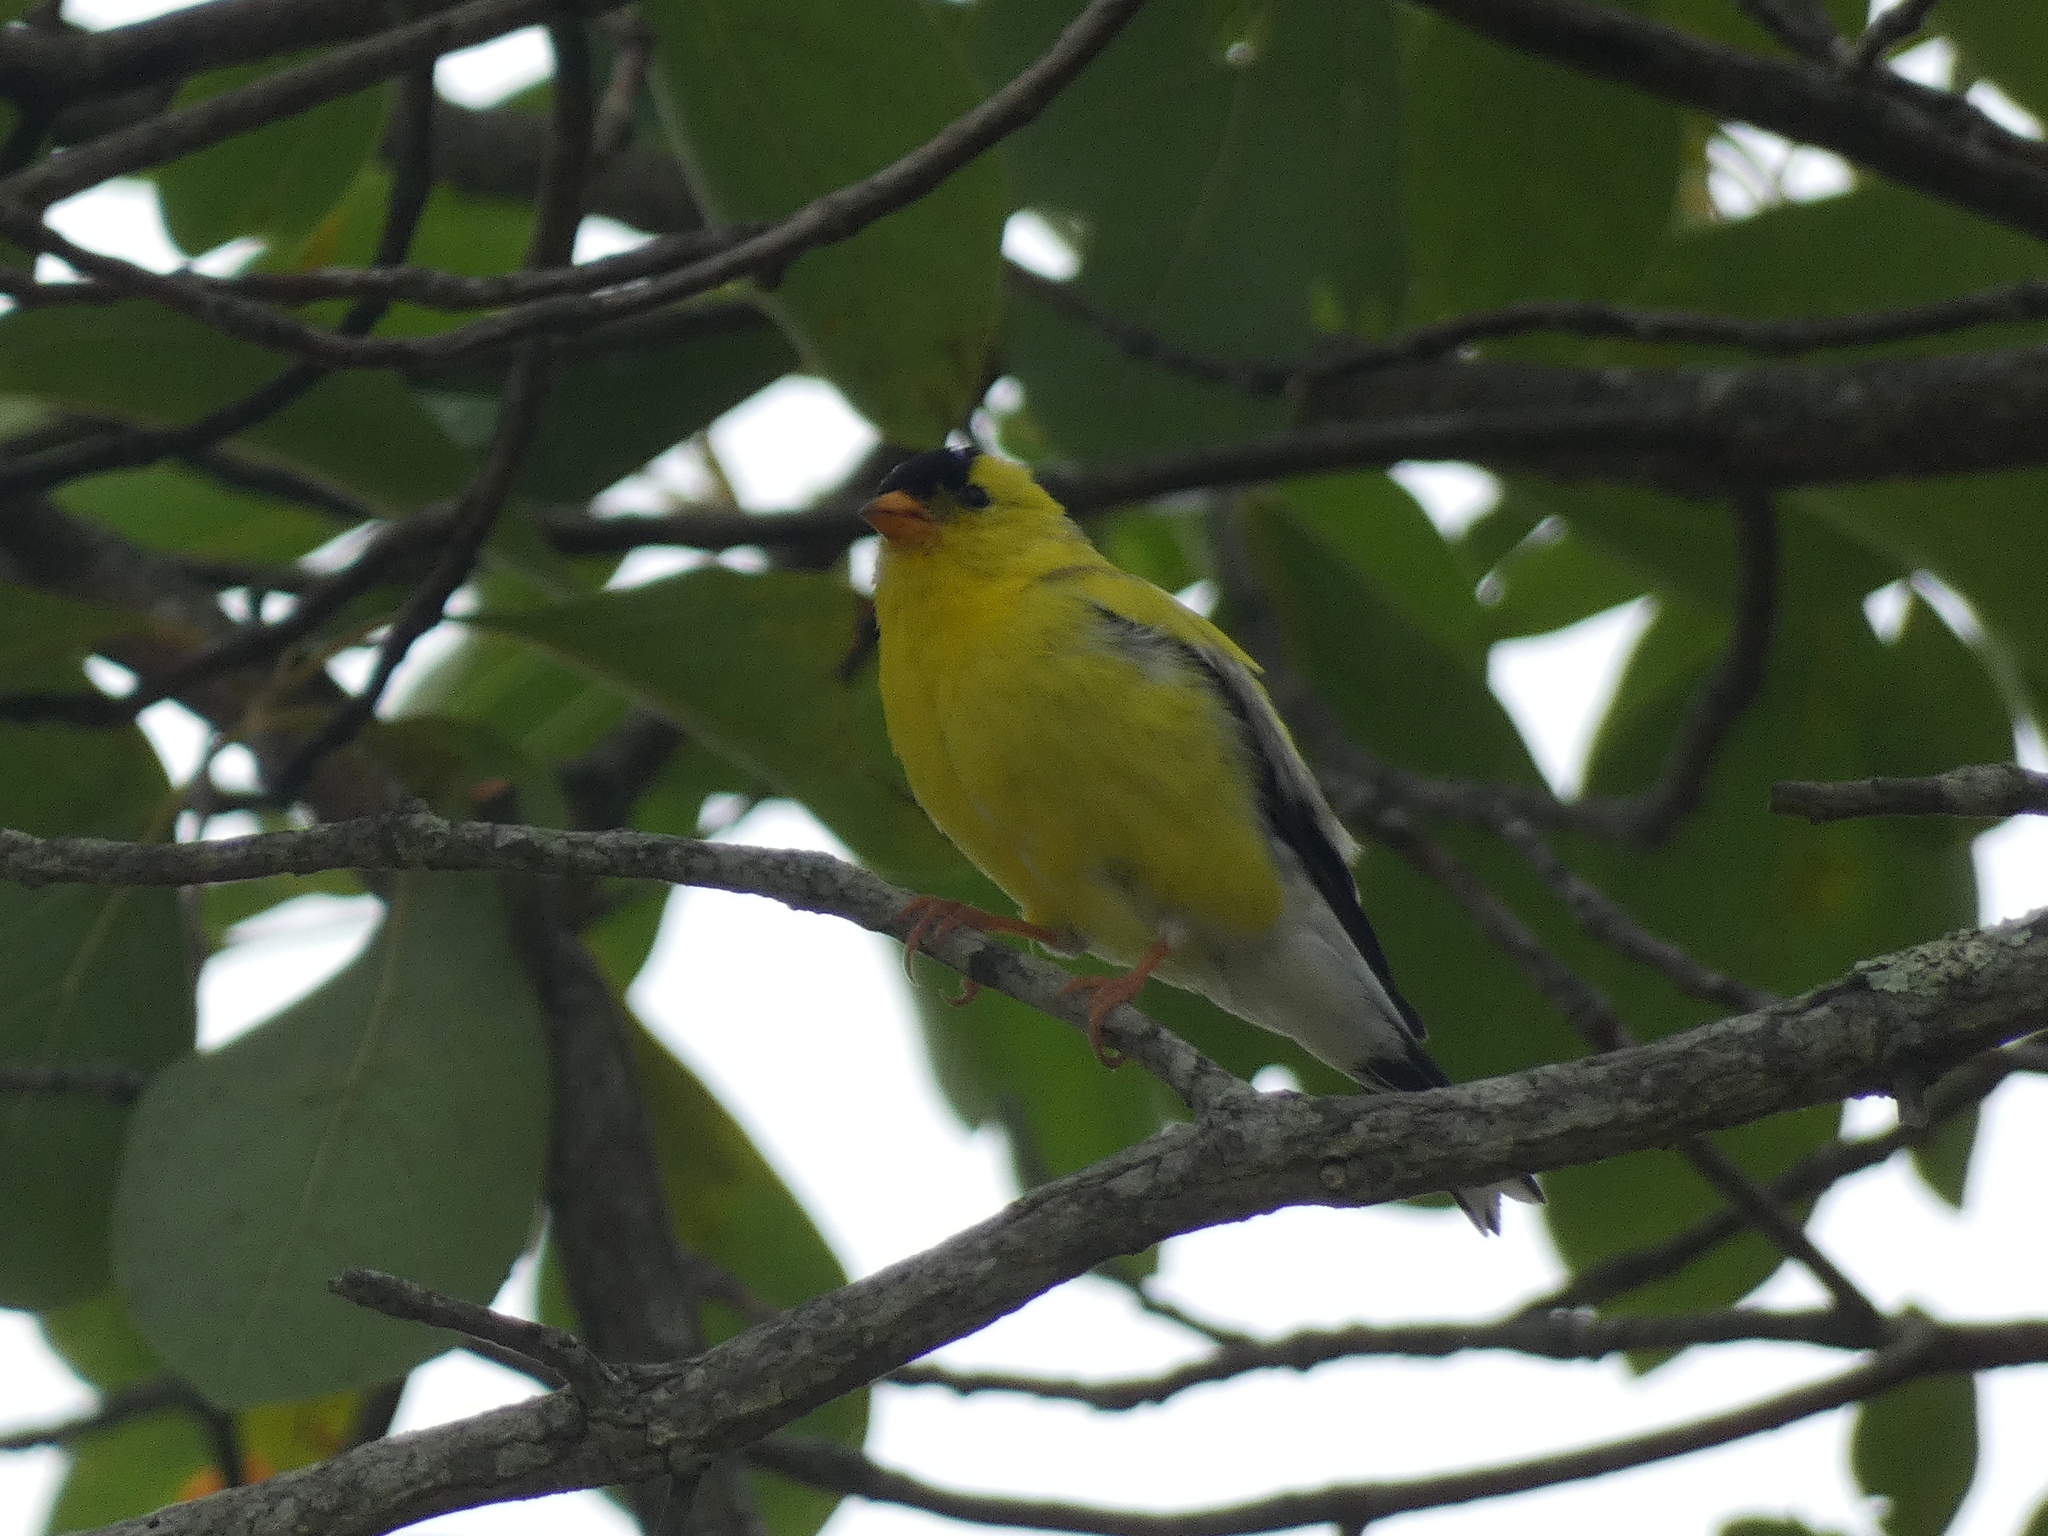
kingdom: Animalia
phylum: Chordata
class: Aves
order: Passeriformes
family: Fringillidae
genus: Spinus
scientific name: Spinus tristis
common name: American goldfinch
